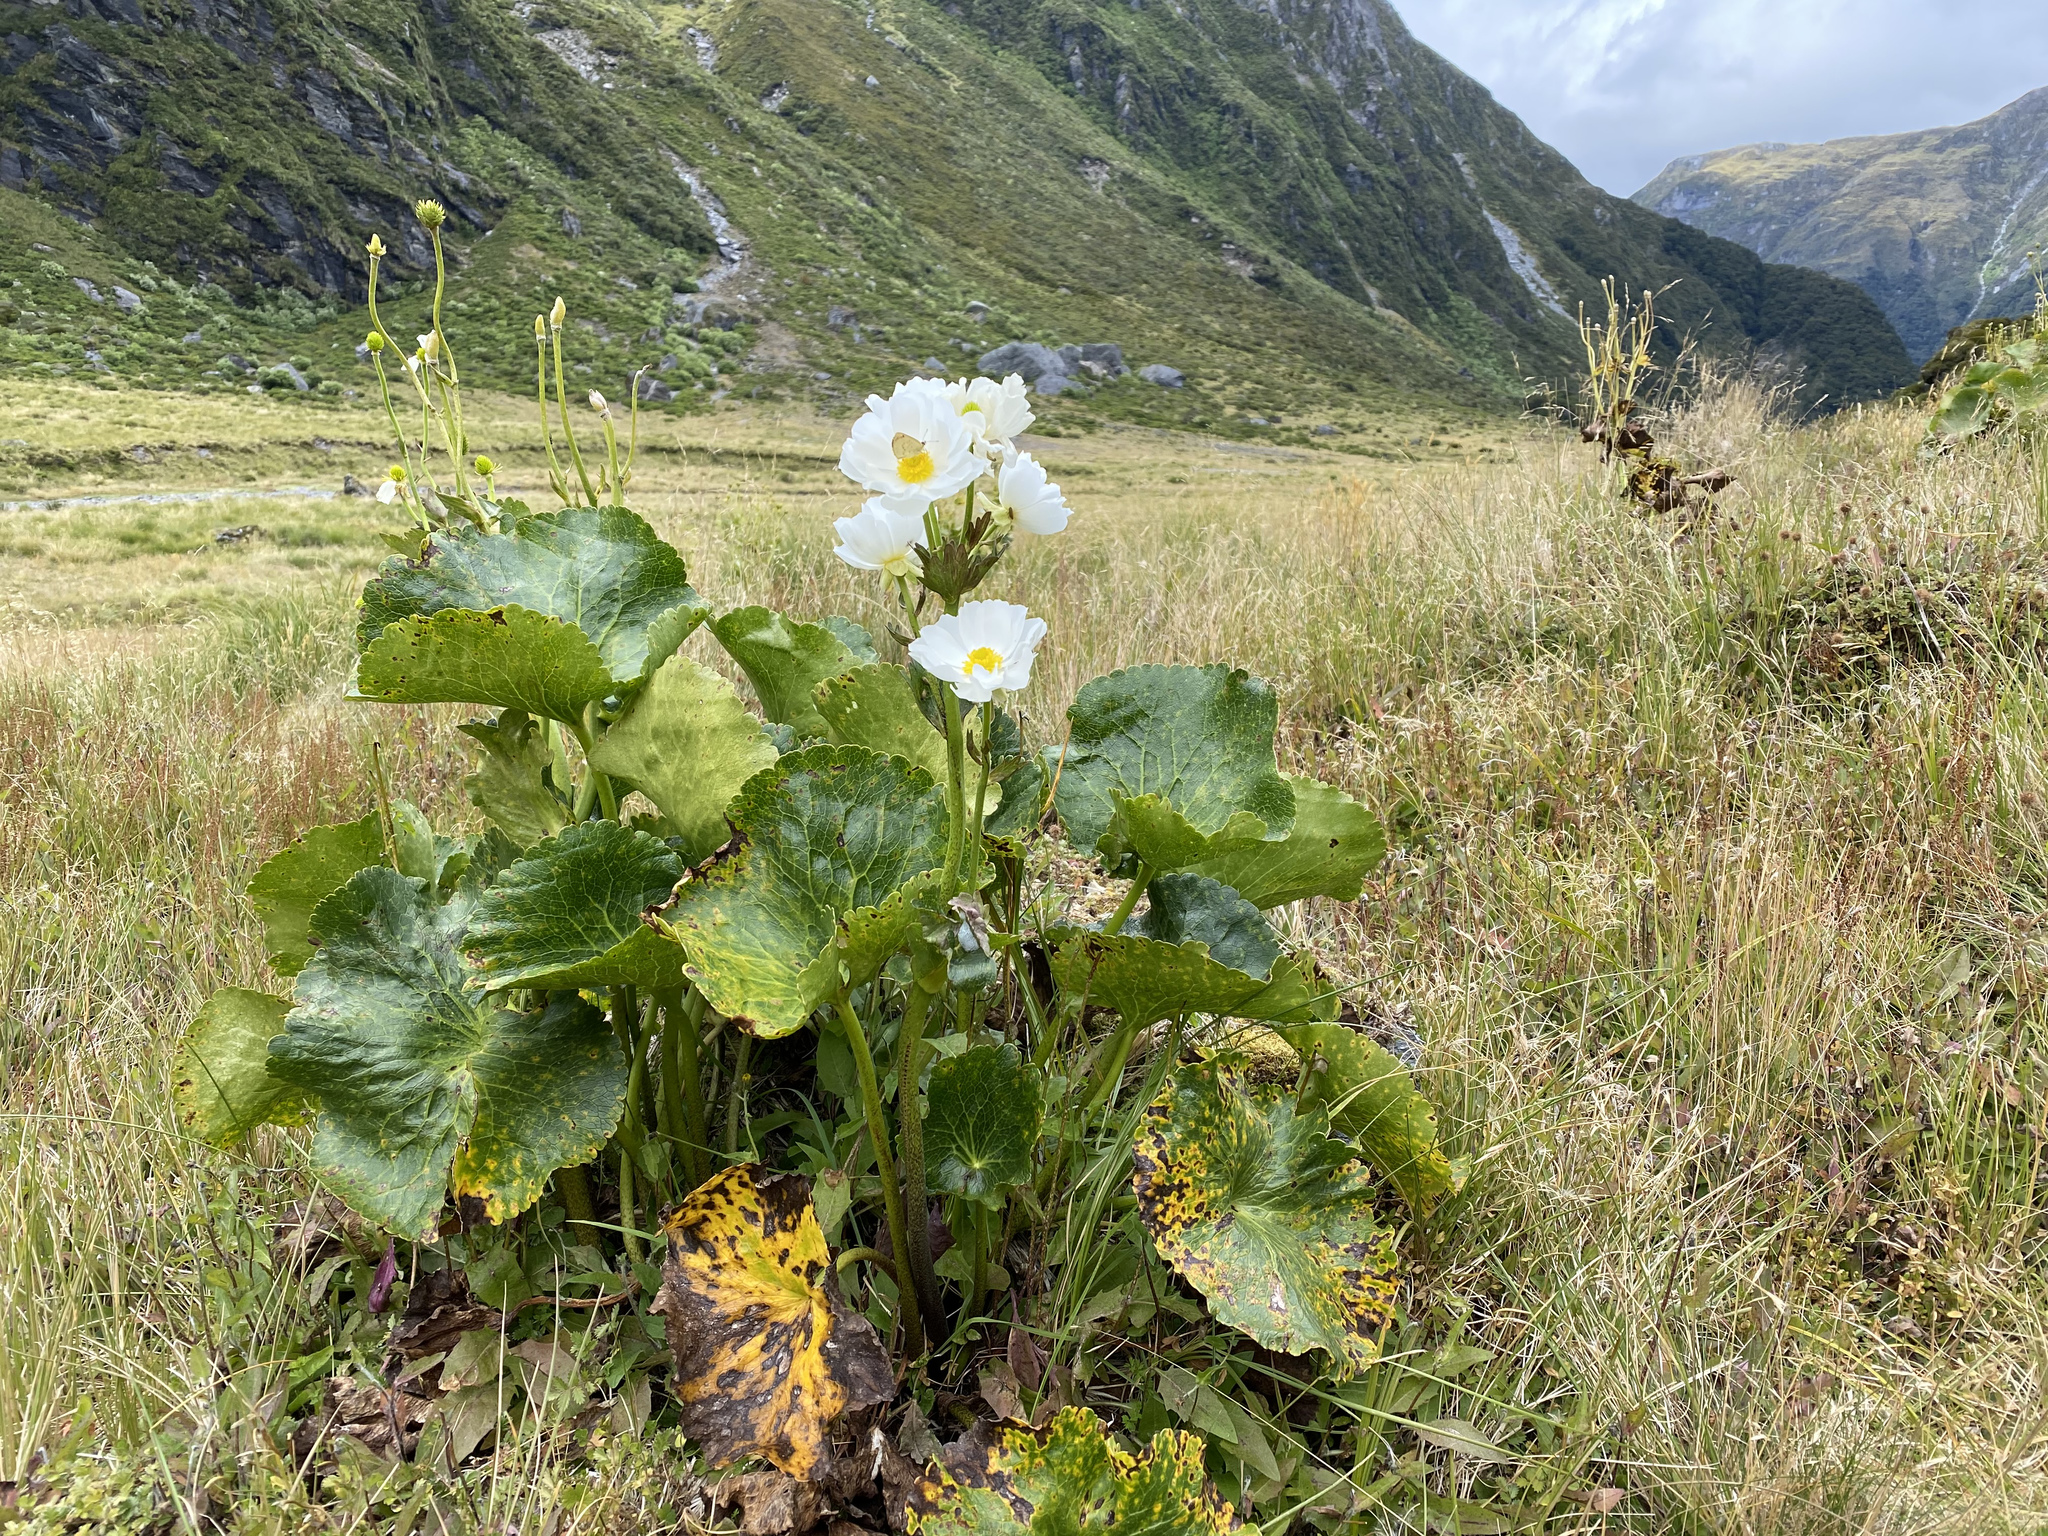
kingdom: Plantae
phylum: Tracheophyta
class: Magnoliopsida
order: Ranunculales
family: Ranunculaceae
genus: Ranunculus
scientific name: Ranunculus lyallii
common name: Mountain-lily
